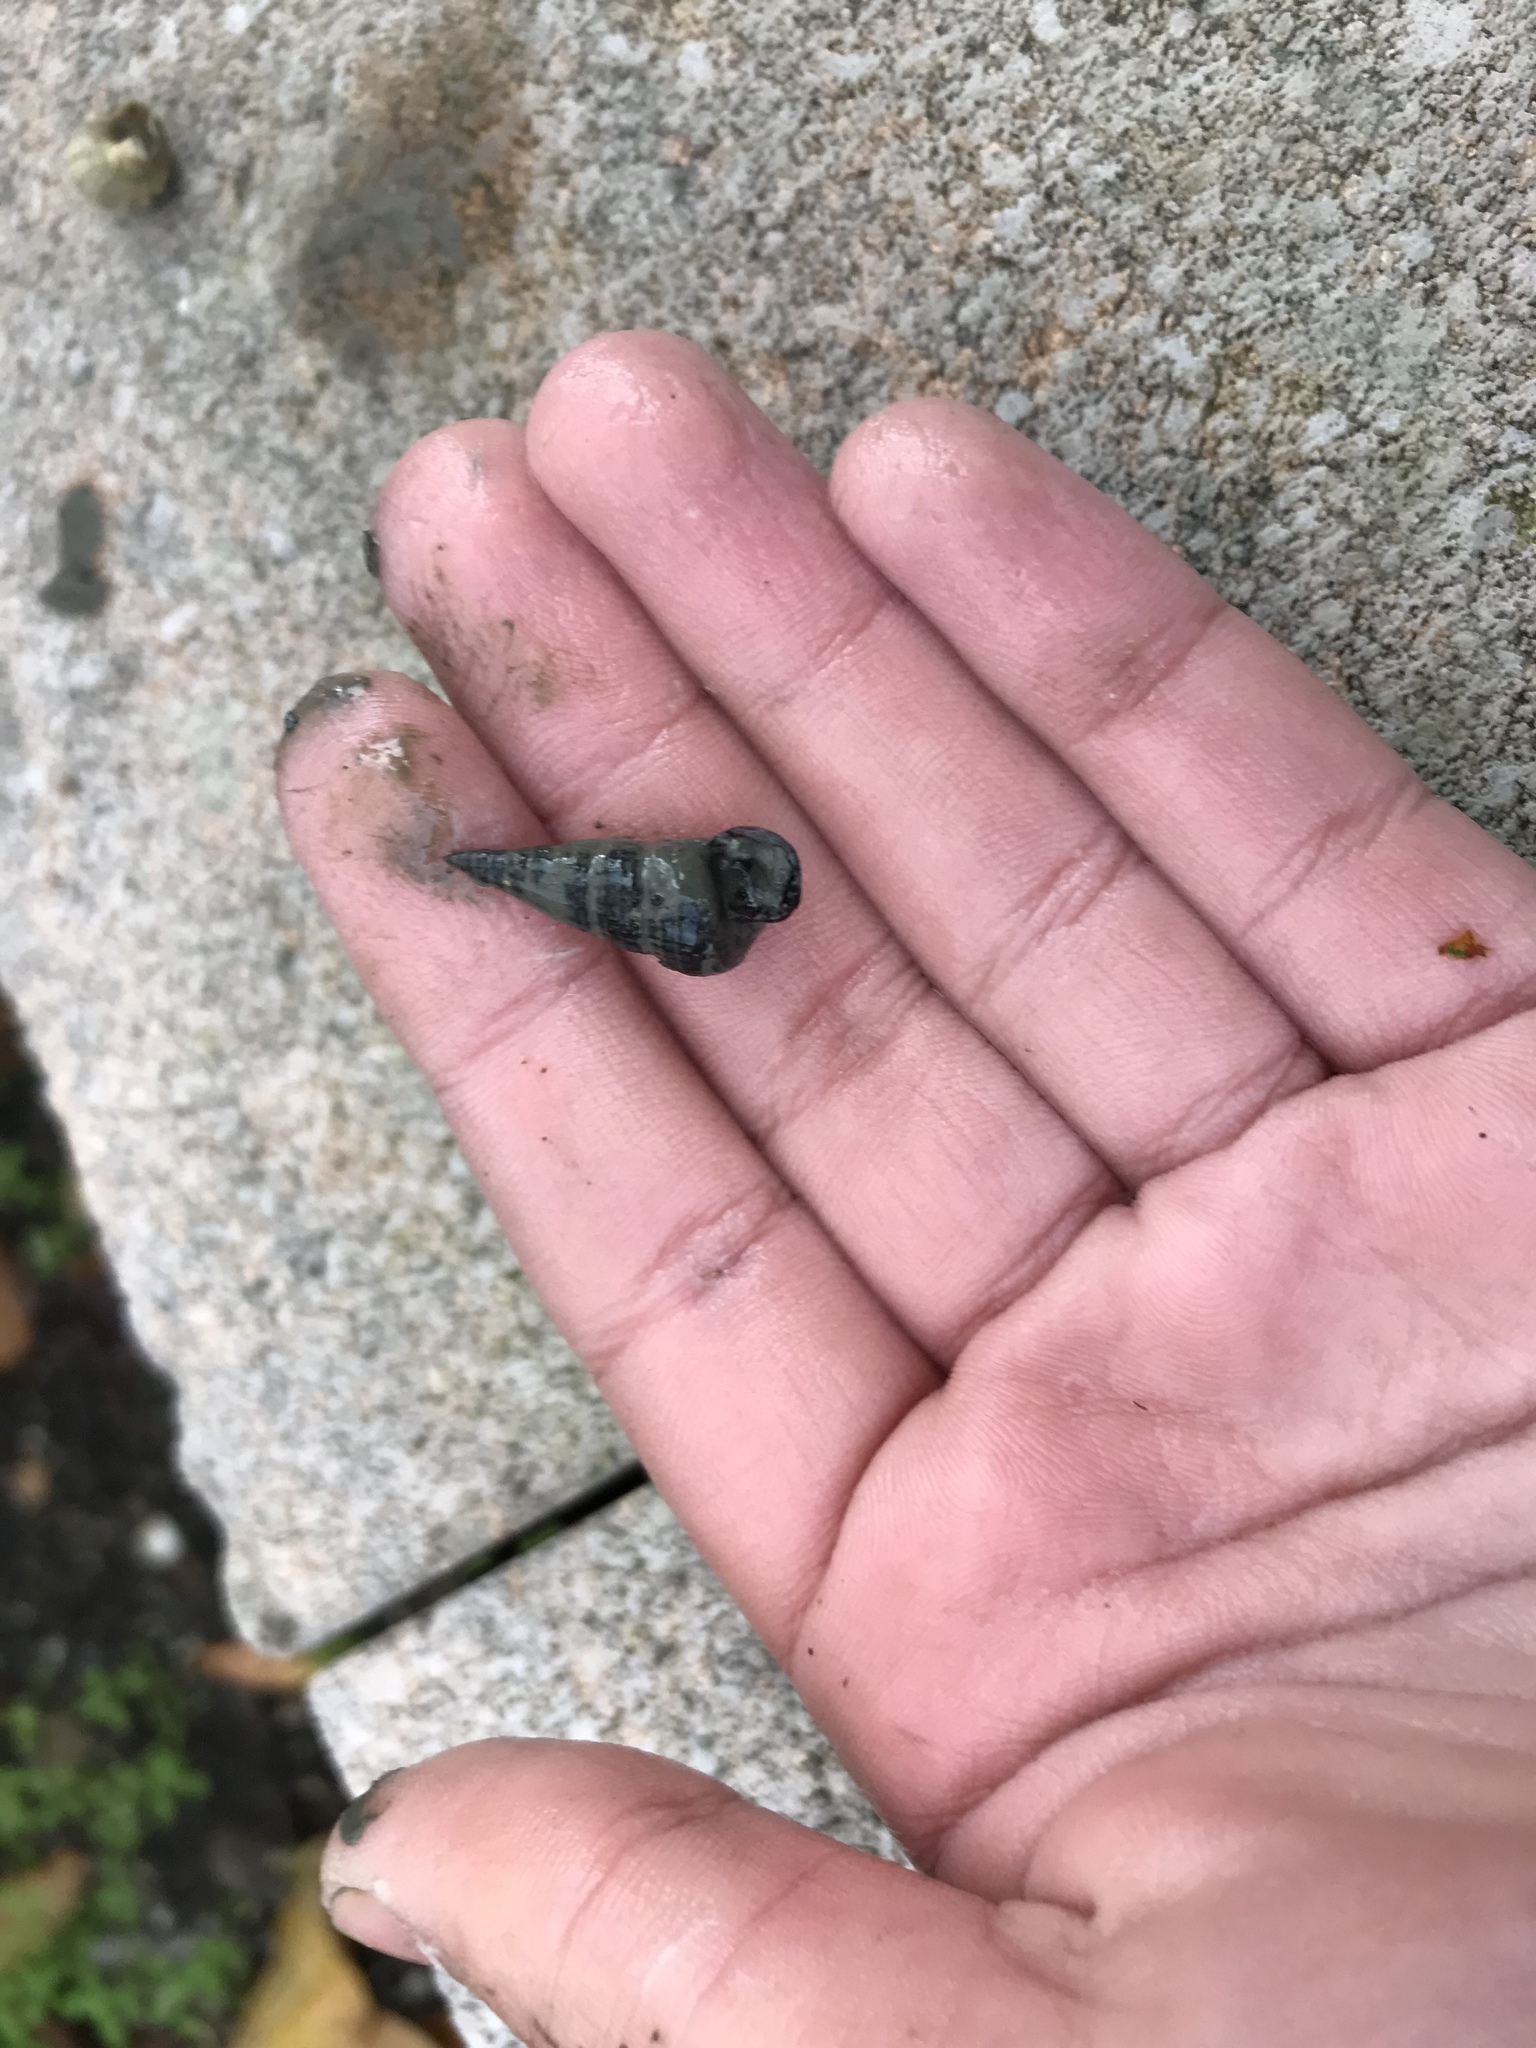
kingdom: Animalia
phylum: Mollusca
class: Gastropoda
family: Potamididae
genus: Cerithideopsis
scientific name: Cerithideopsis californica
